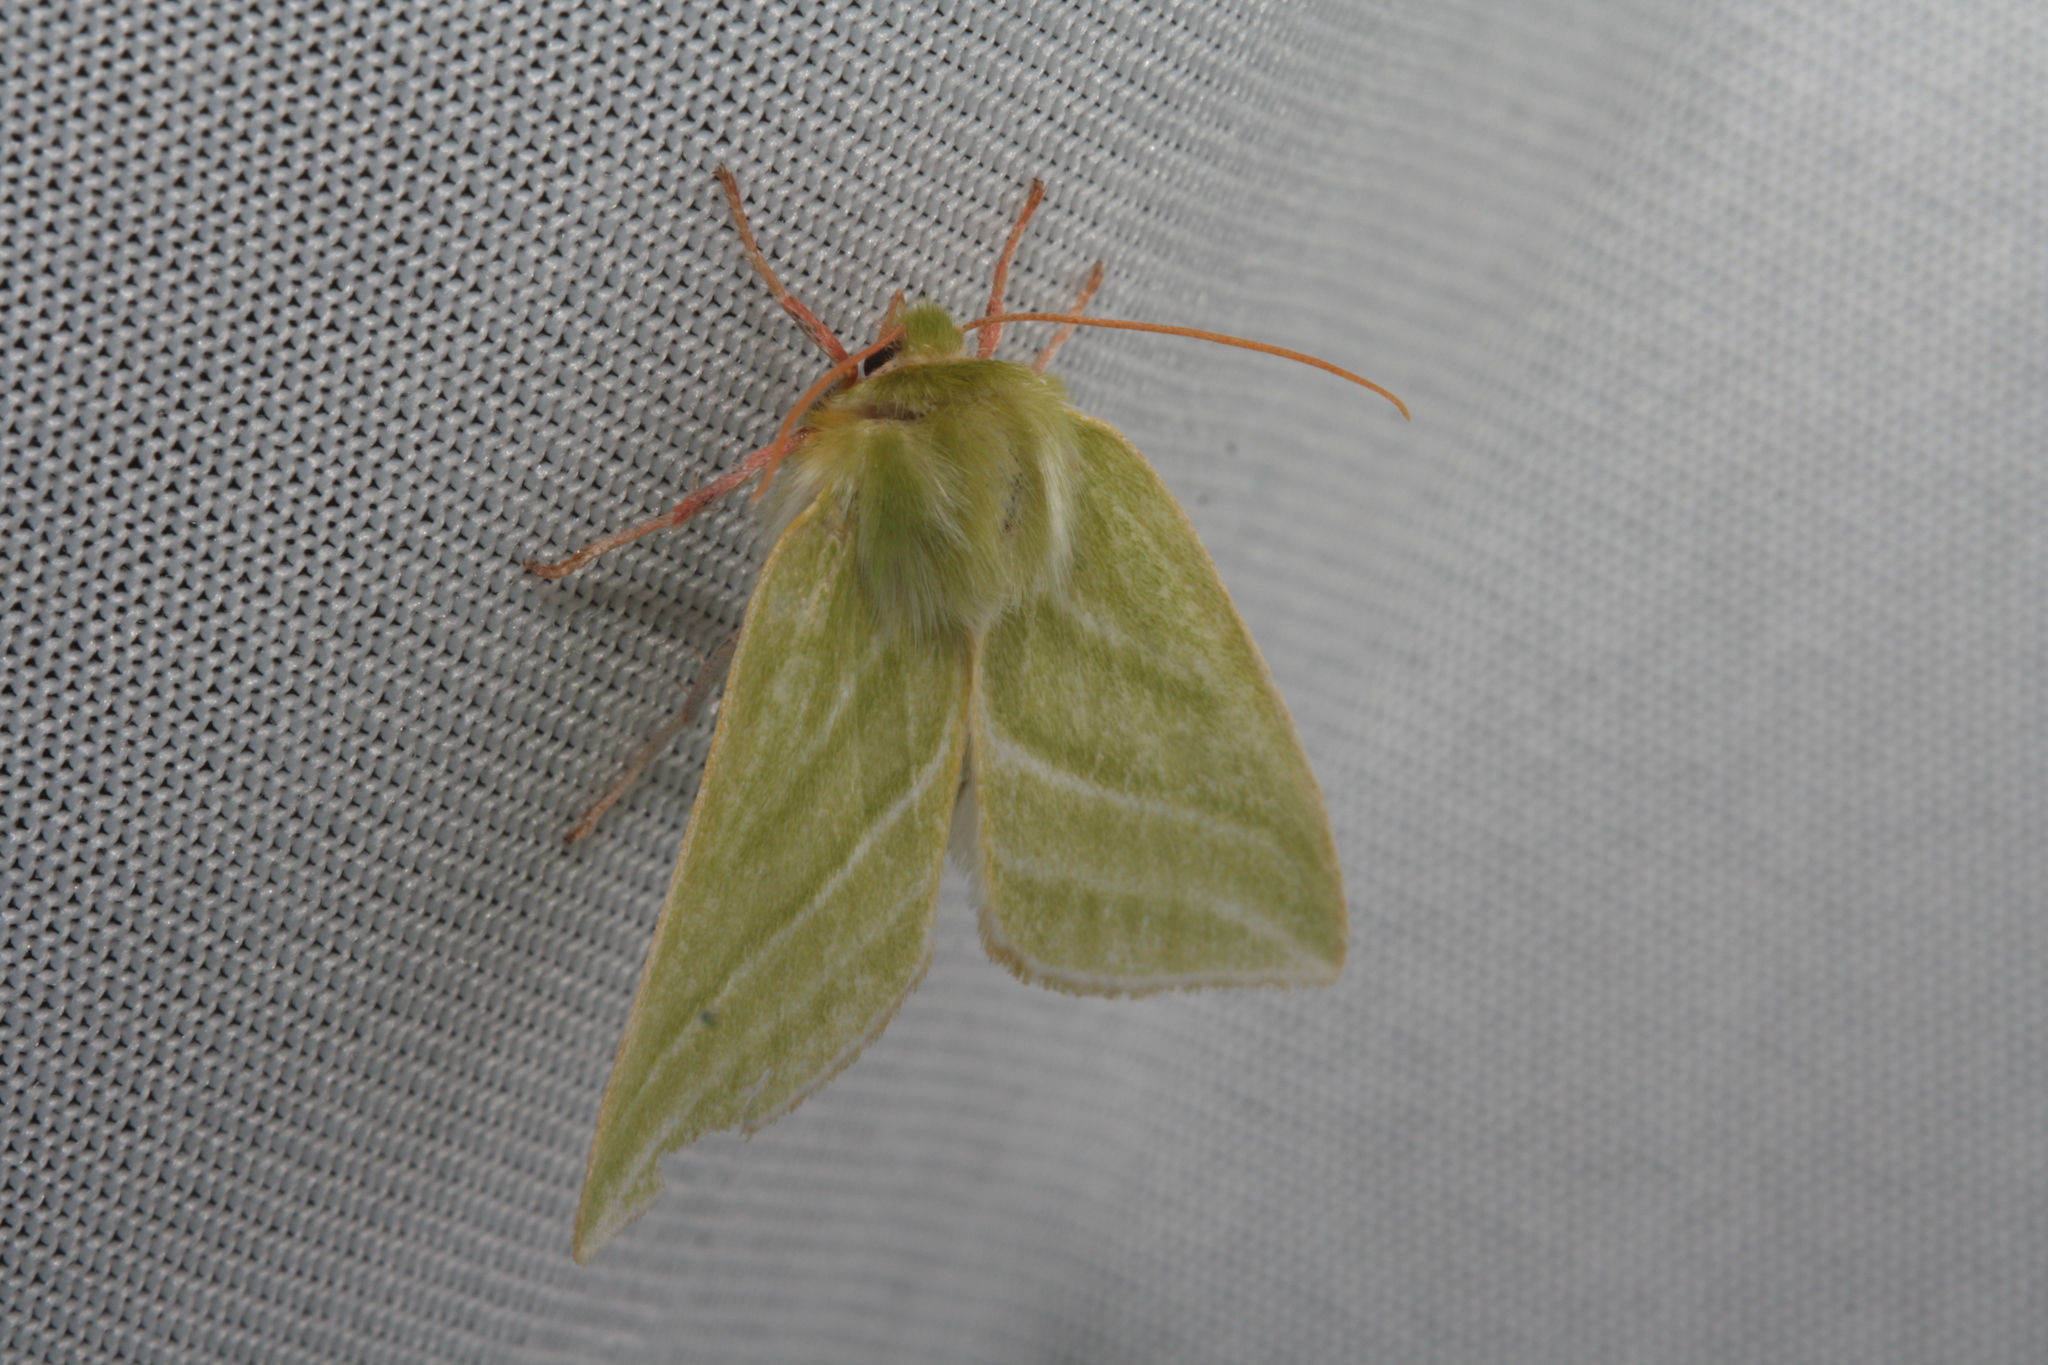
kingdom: Animalia
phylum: Arthropoda
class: Insecta
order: Lepidoptera
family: Nolidae
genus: Pseudoips
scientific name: Pseudoips prasinana
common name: Green silver-lines
